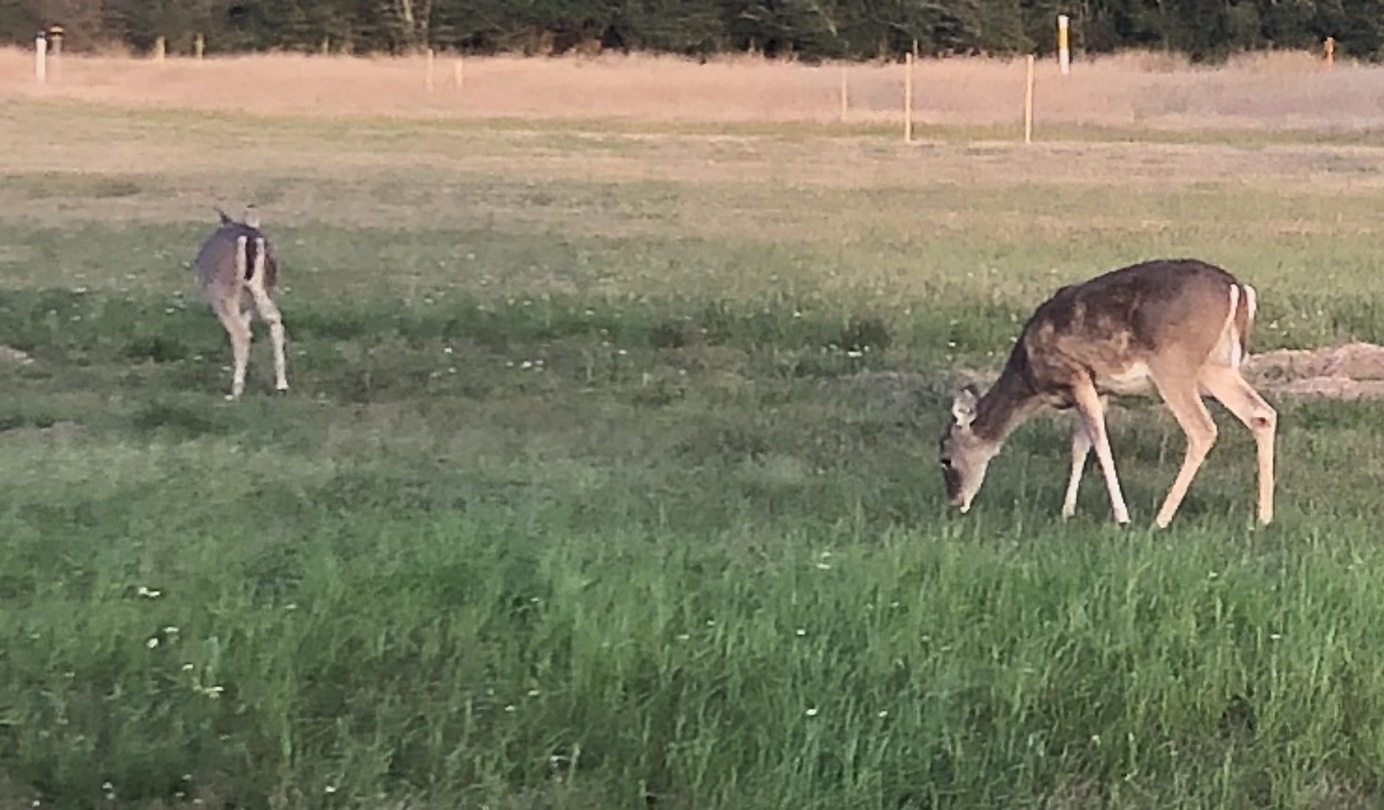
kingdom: Animalia
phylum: Chordata
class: Mammalia
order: Artiodactyla
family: Cervidae
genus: Odocoileus
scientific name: Odocoileus virginianus
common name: White-tailed deer
